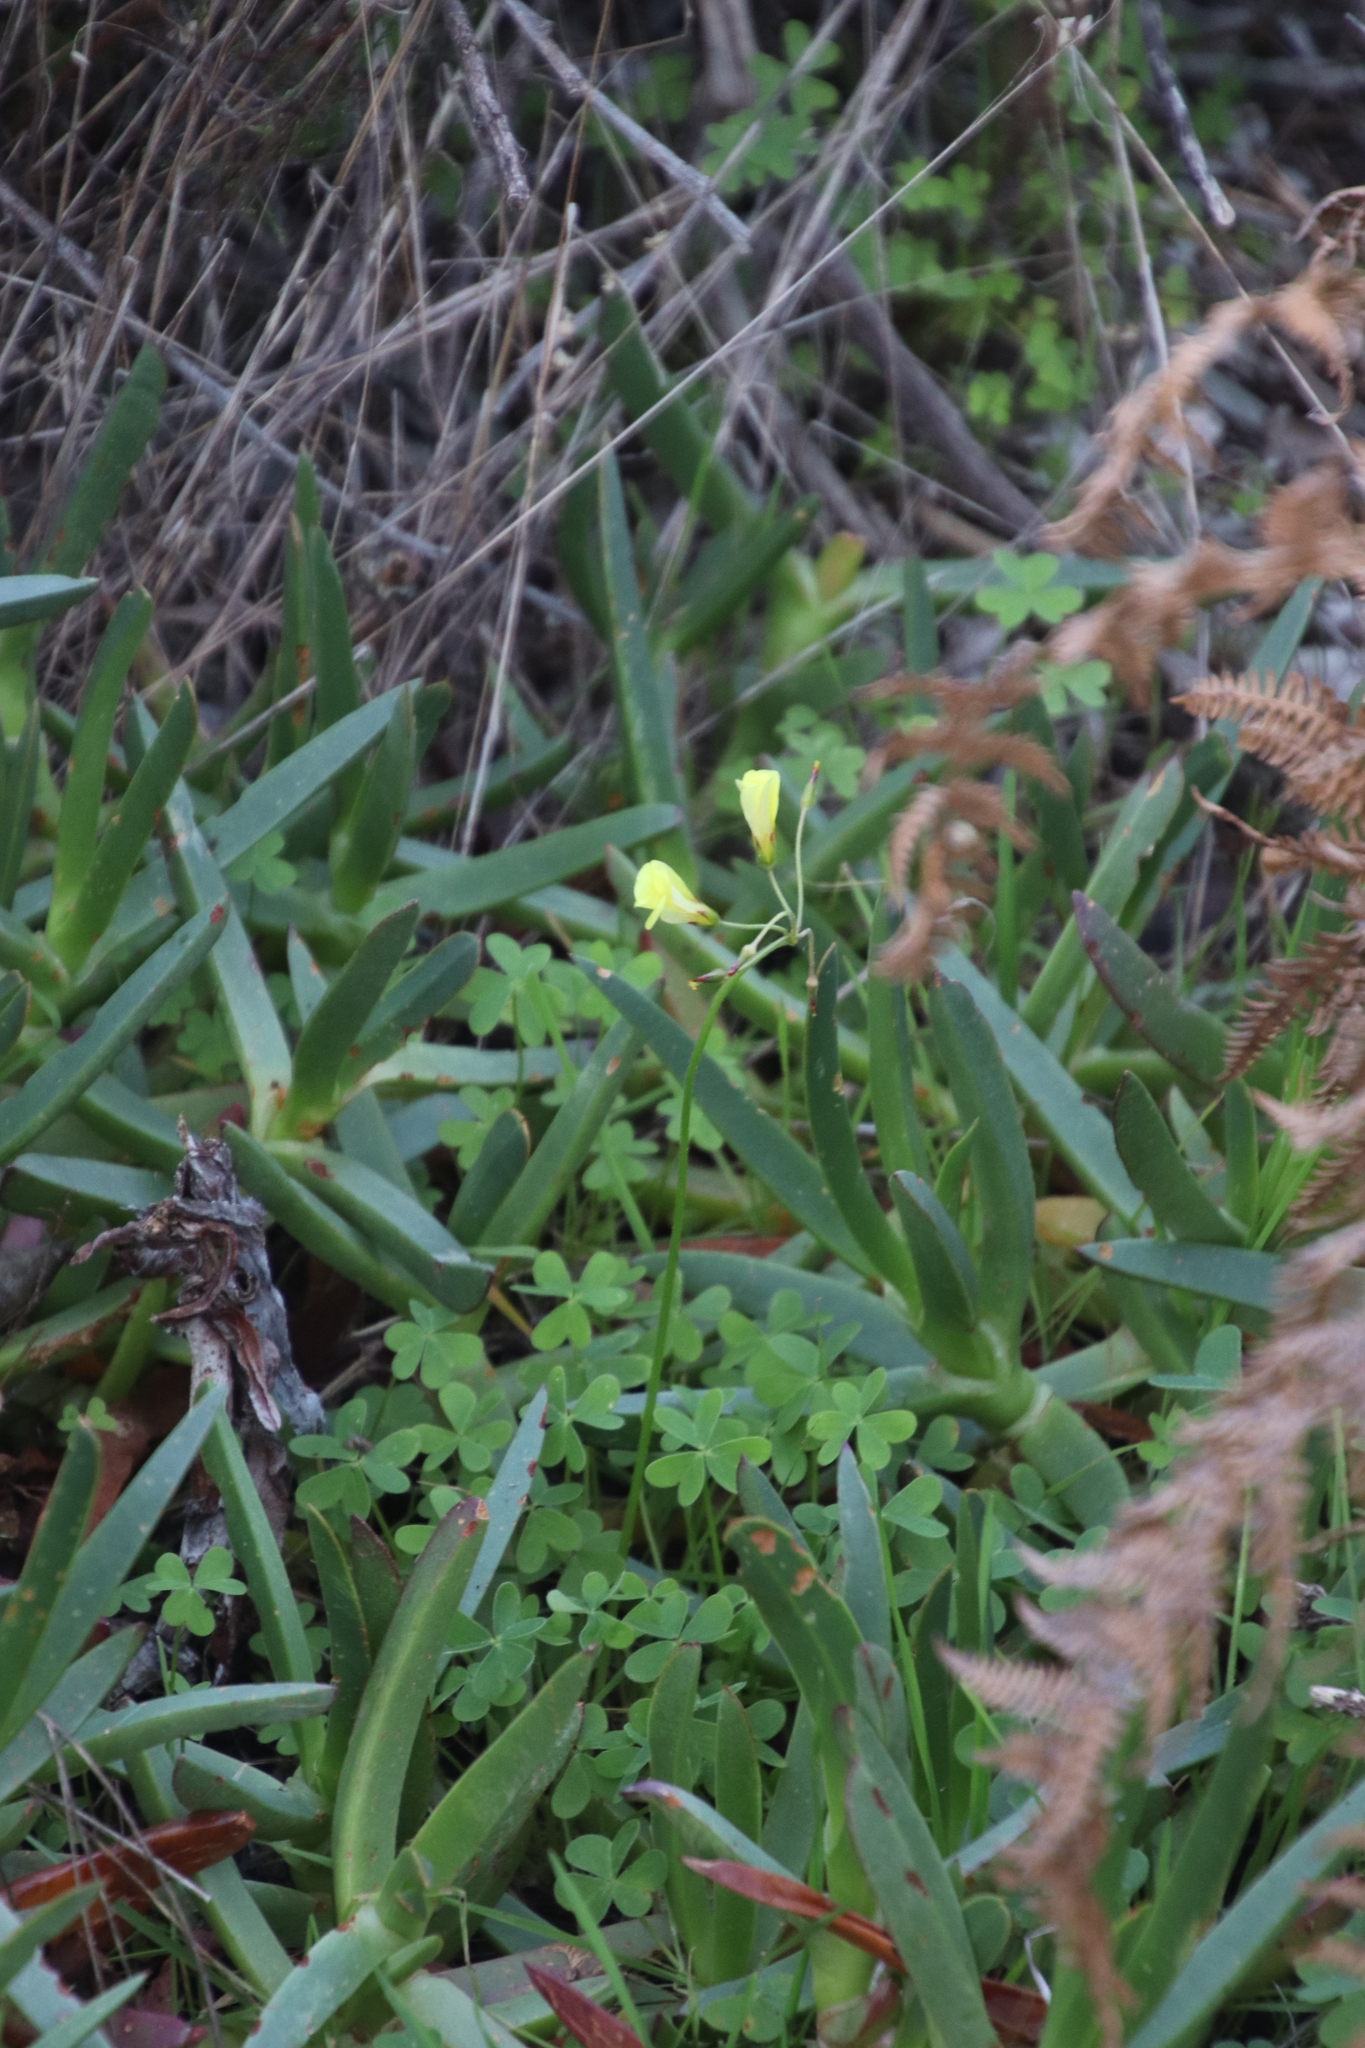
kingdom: Plantae
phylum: Tracheophyta
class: Magnoliopsida
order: Oxalidales
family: Oxalidaceae
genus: Oxalis
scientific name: Oxalis pes-caprae
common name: Bermuda-buttercup
